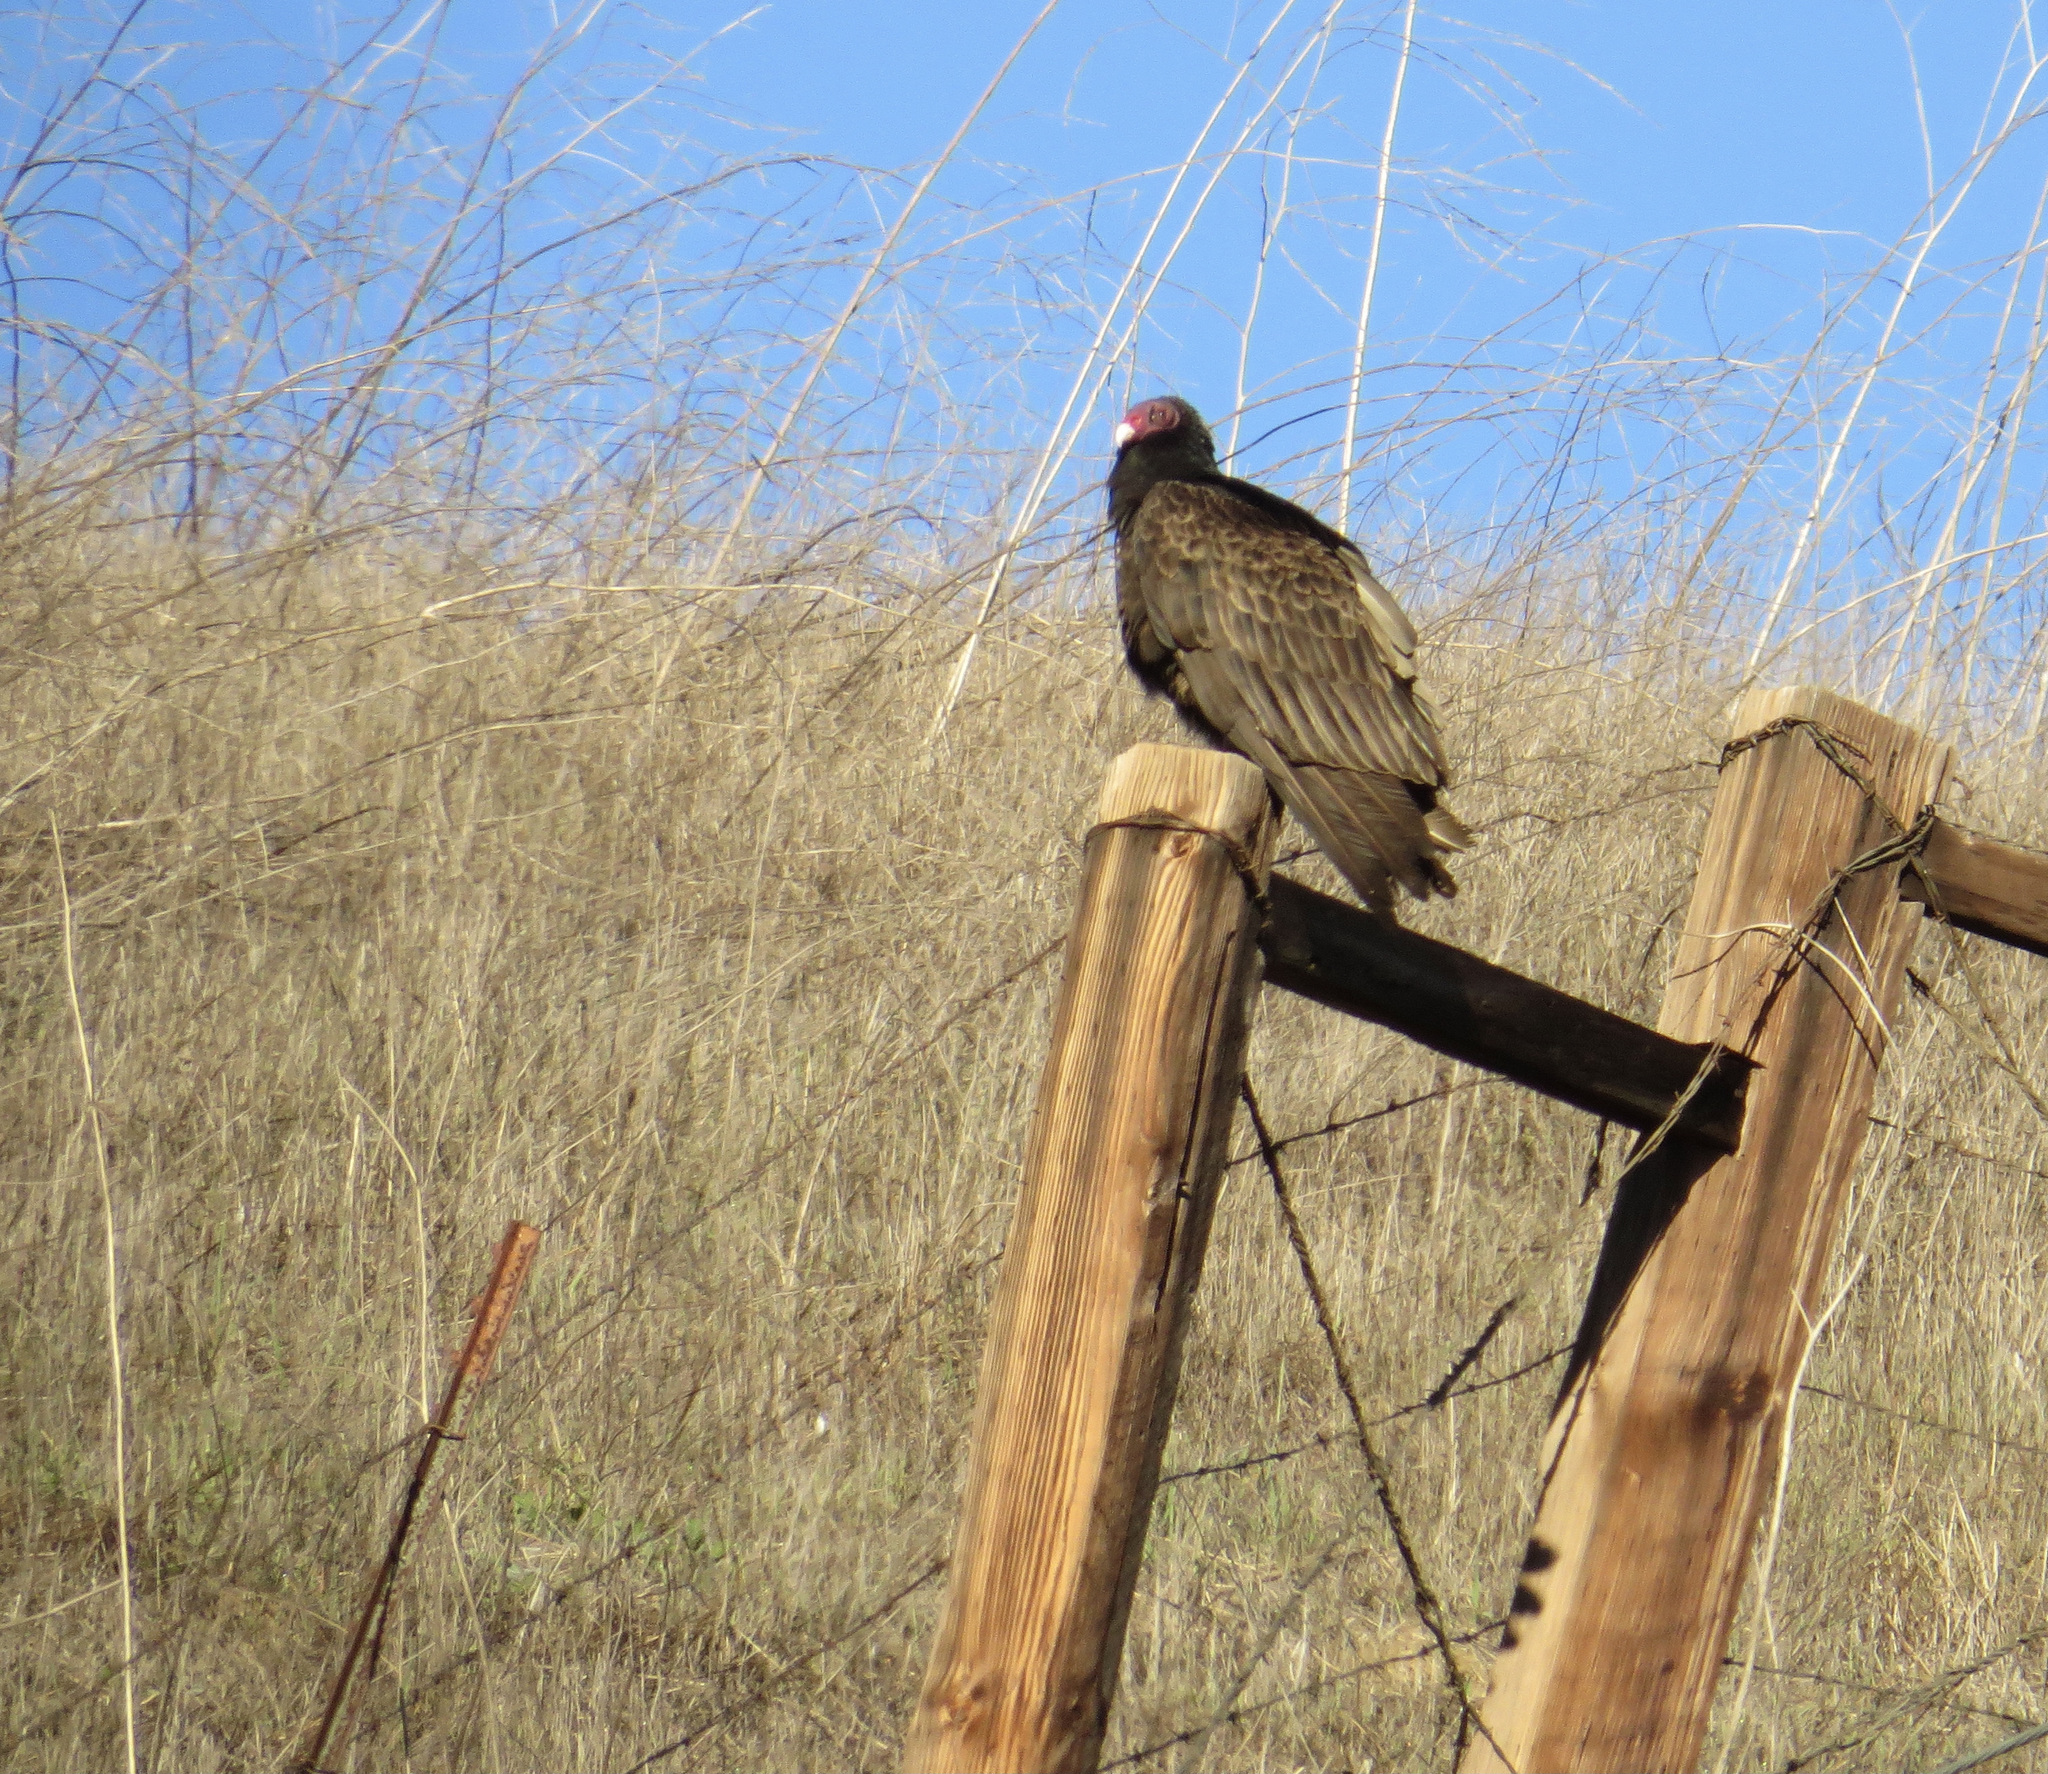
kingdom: Animalia
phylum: Chordata
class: Aves
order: Accipitriformes
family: Cathartidae
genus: Cathartes
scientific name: Cathartes aura
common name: Turkey vulture
